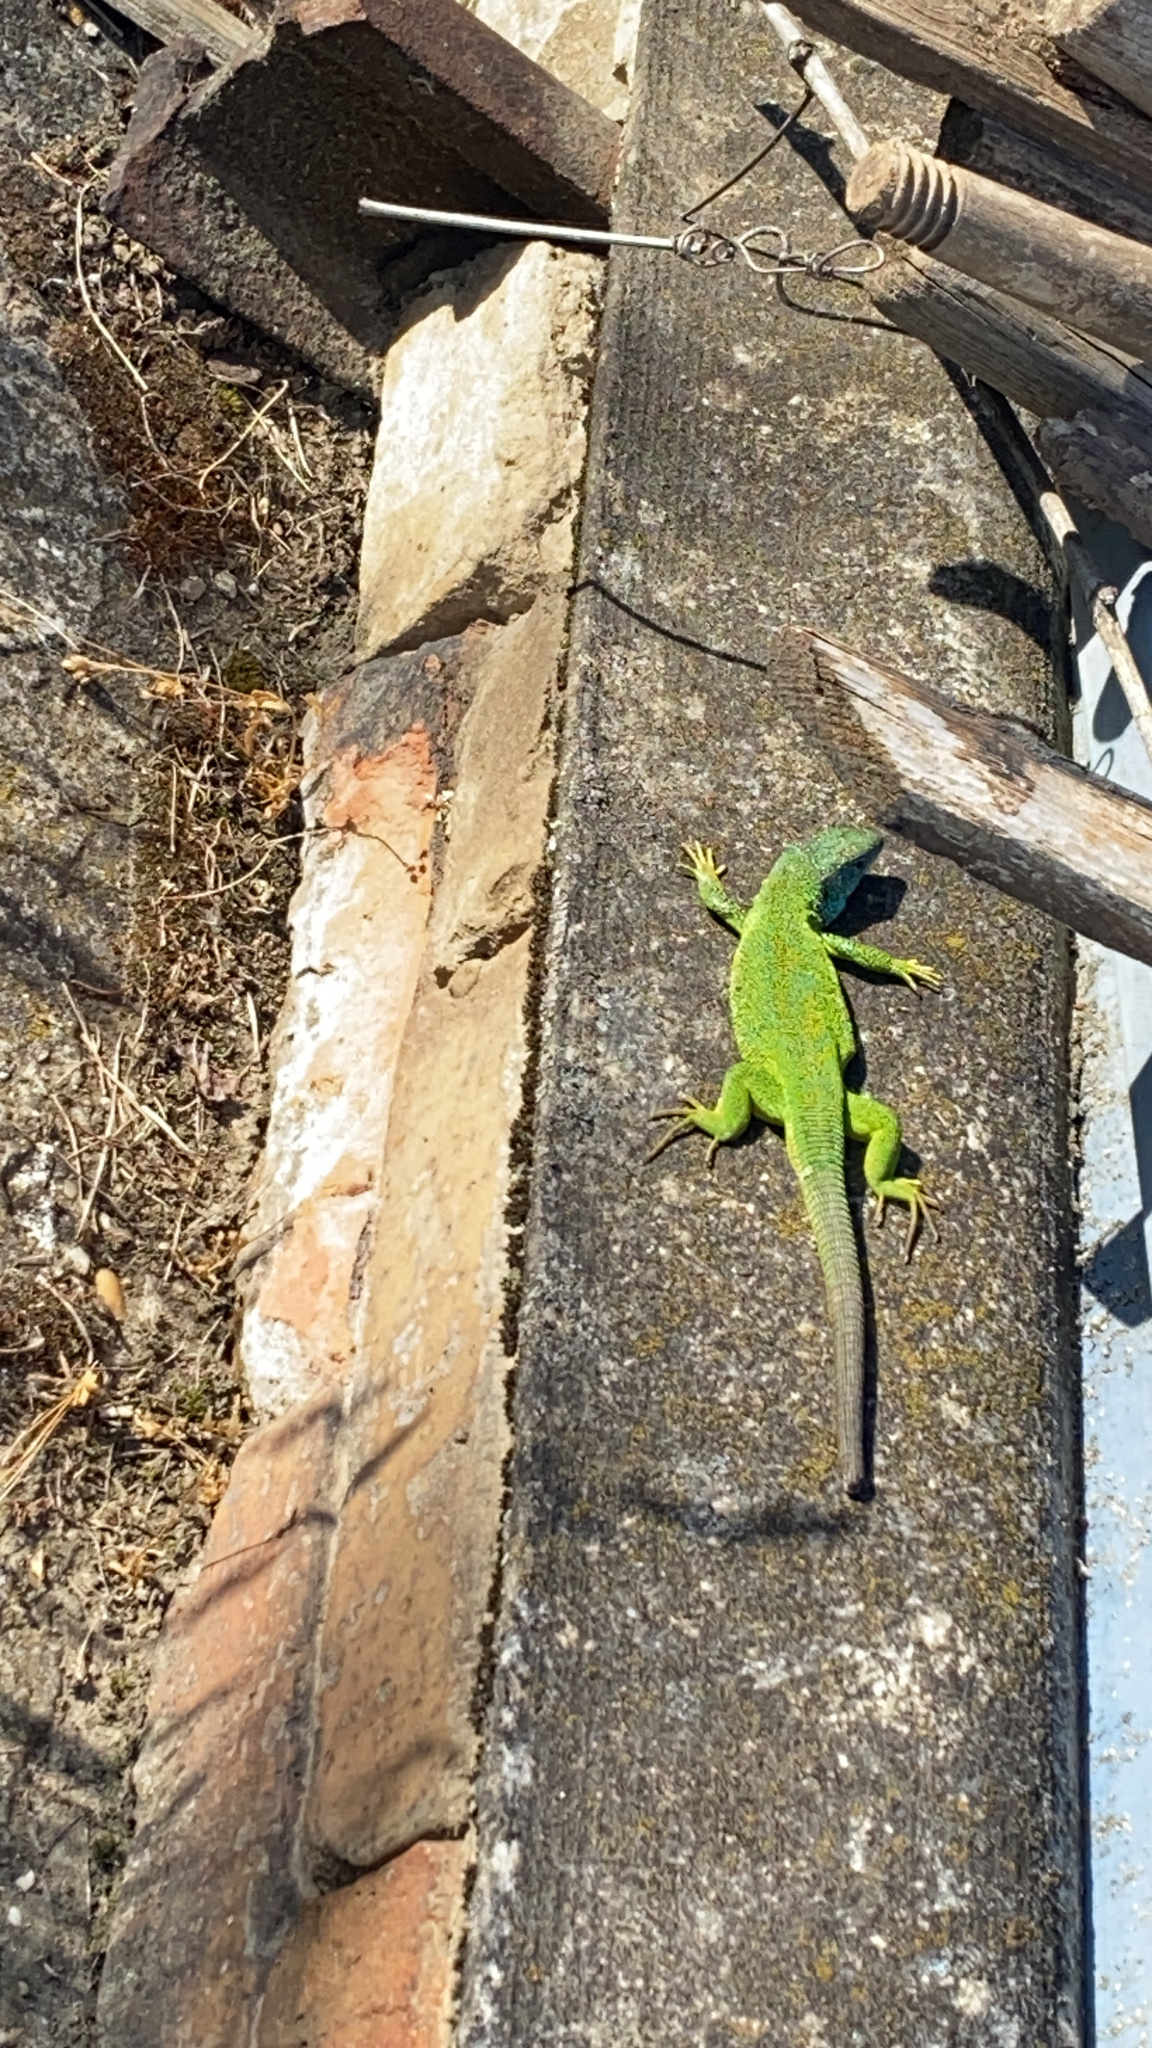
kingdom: Animalia
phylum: Chordata
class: Squamata
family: Lacertidae
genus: Lacerta
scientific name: Lacerta viridis
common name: European green lizard
